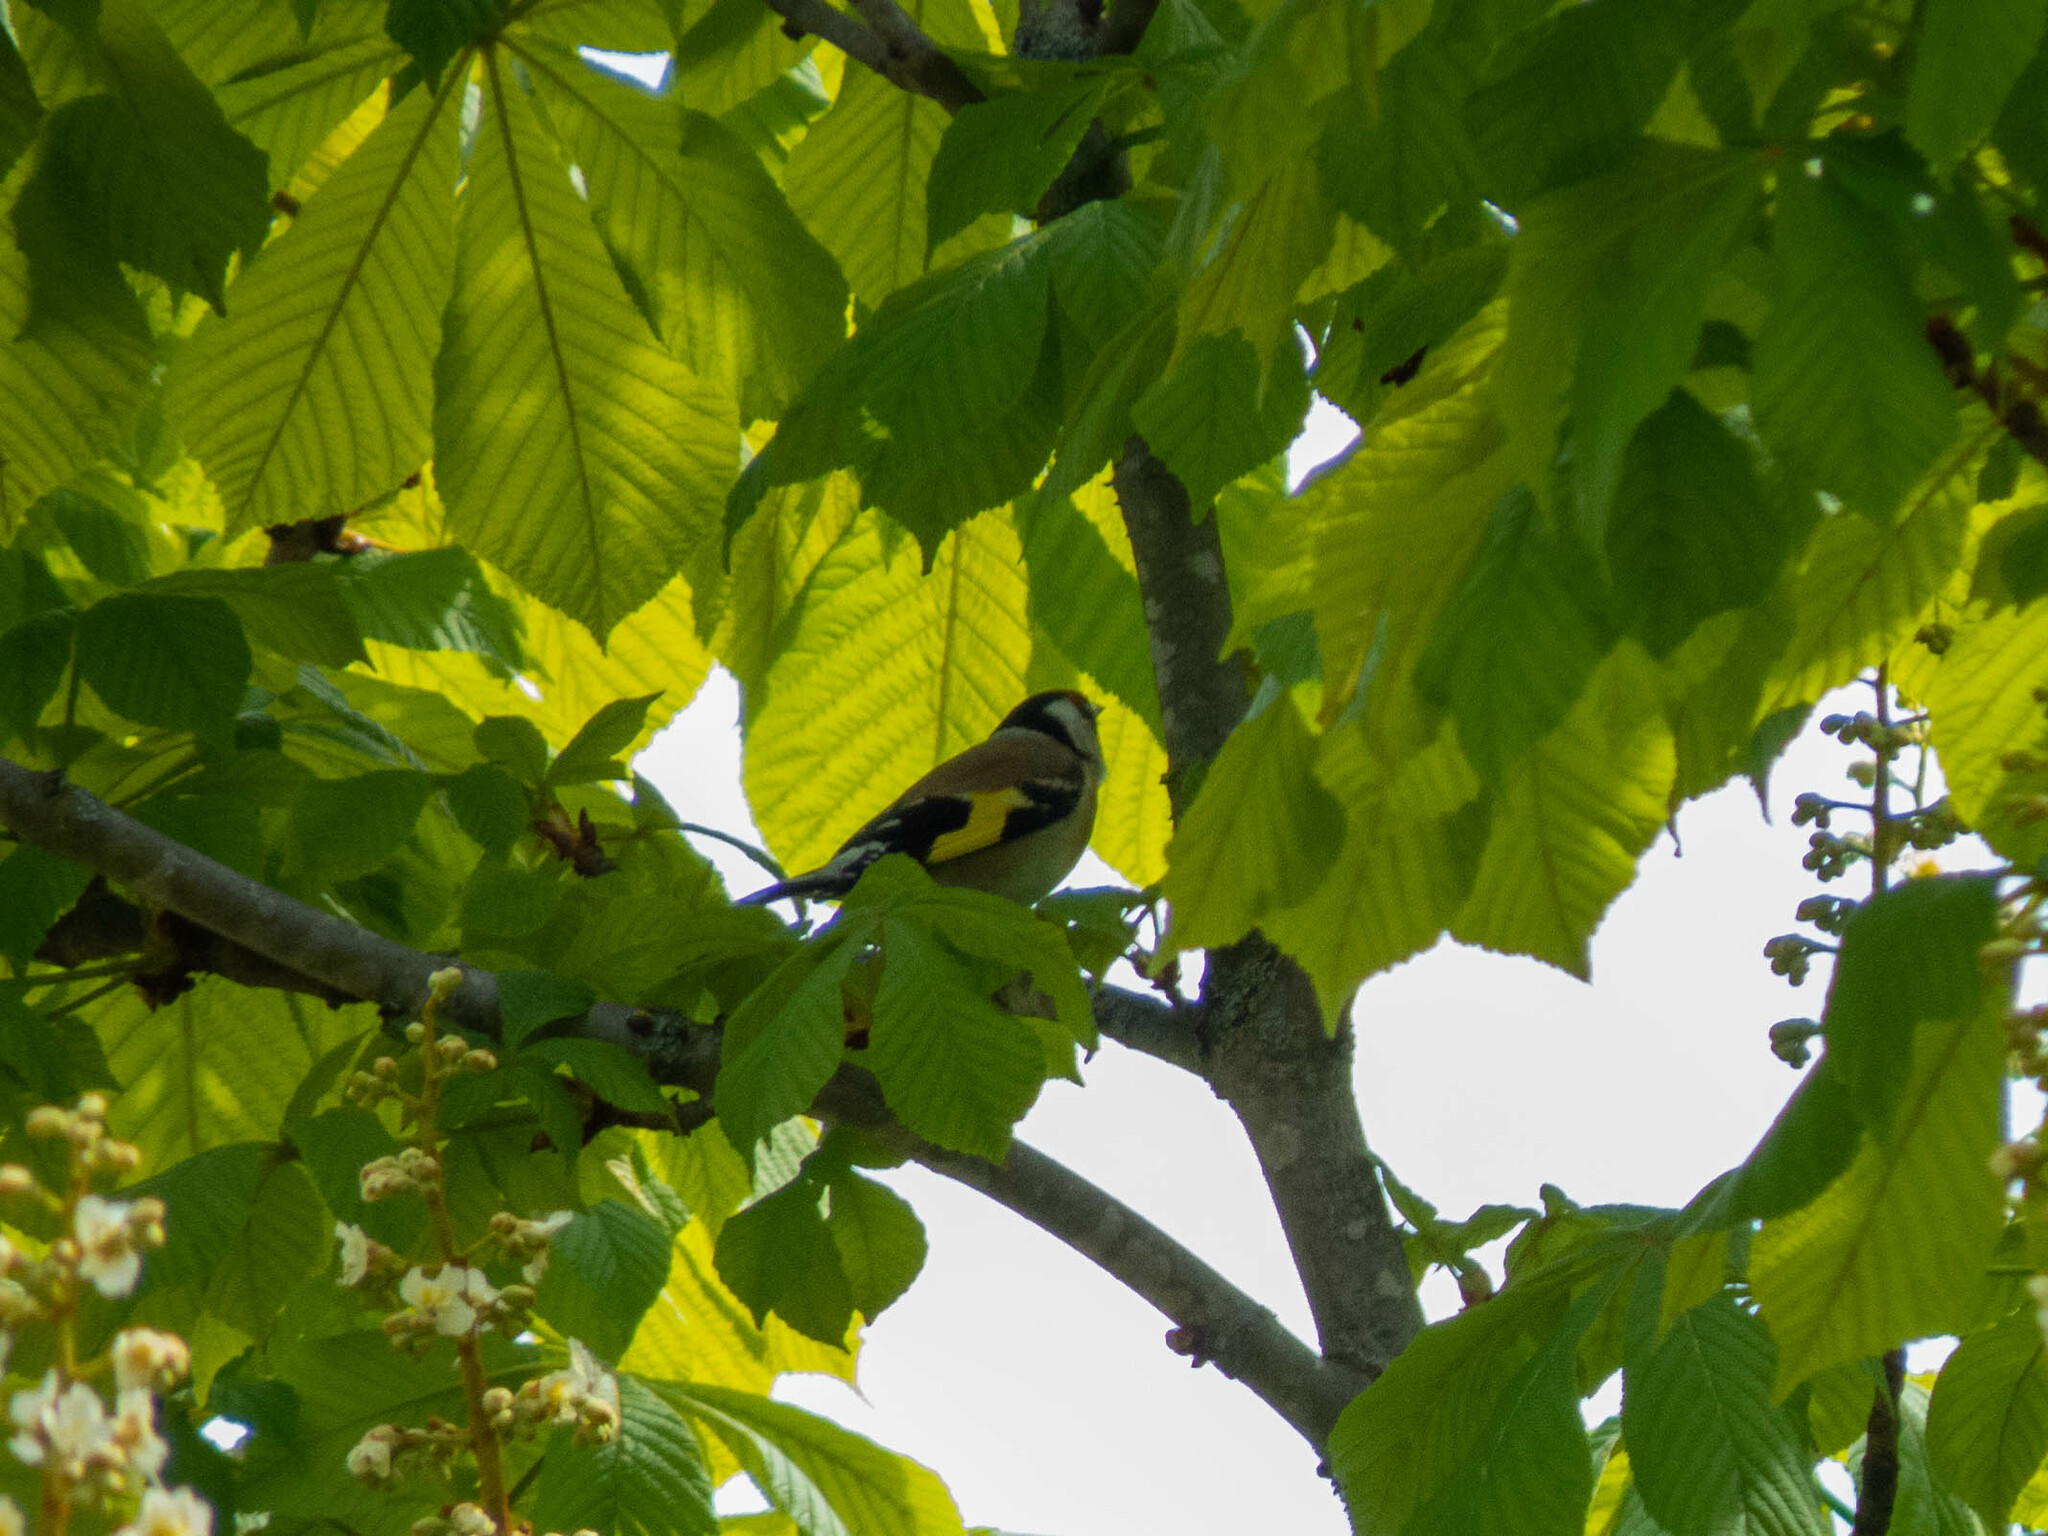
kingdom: Animalia
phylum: Chordata
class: Aves
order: Passeriformes
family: Fringillidae
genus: Carduelis
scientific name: Carduelis carduelis
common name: European goldfinch
